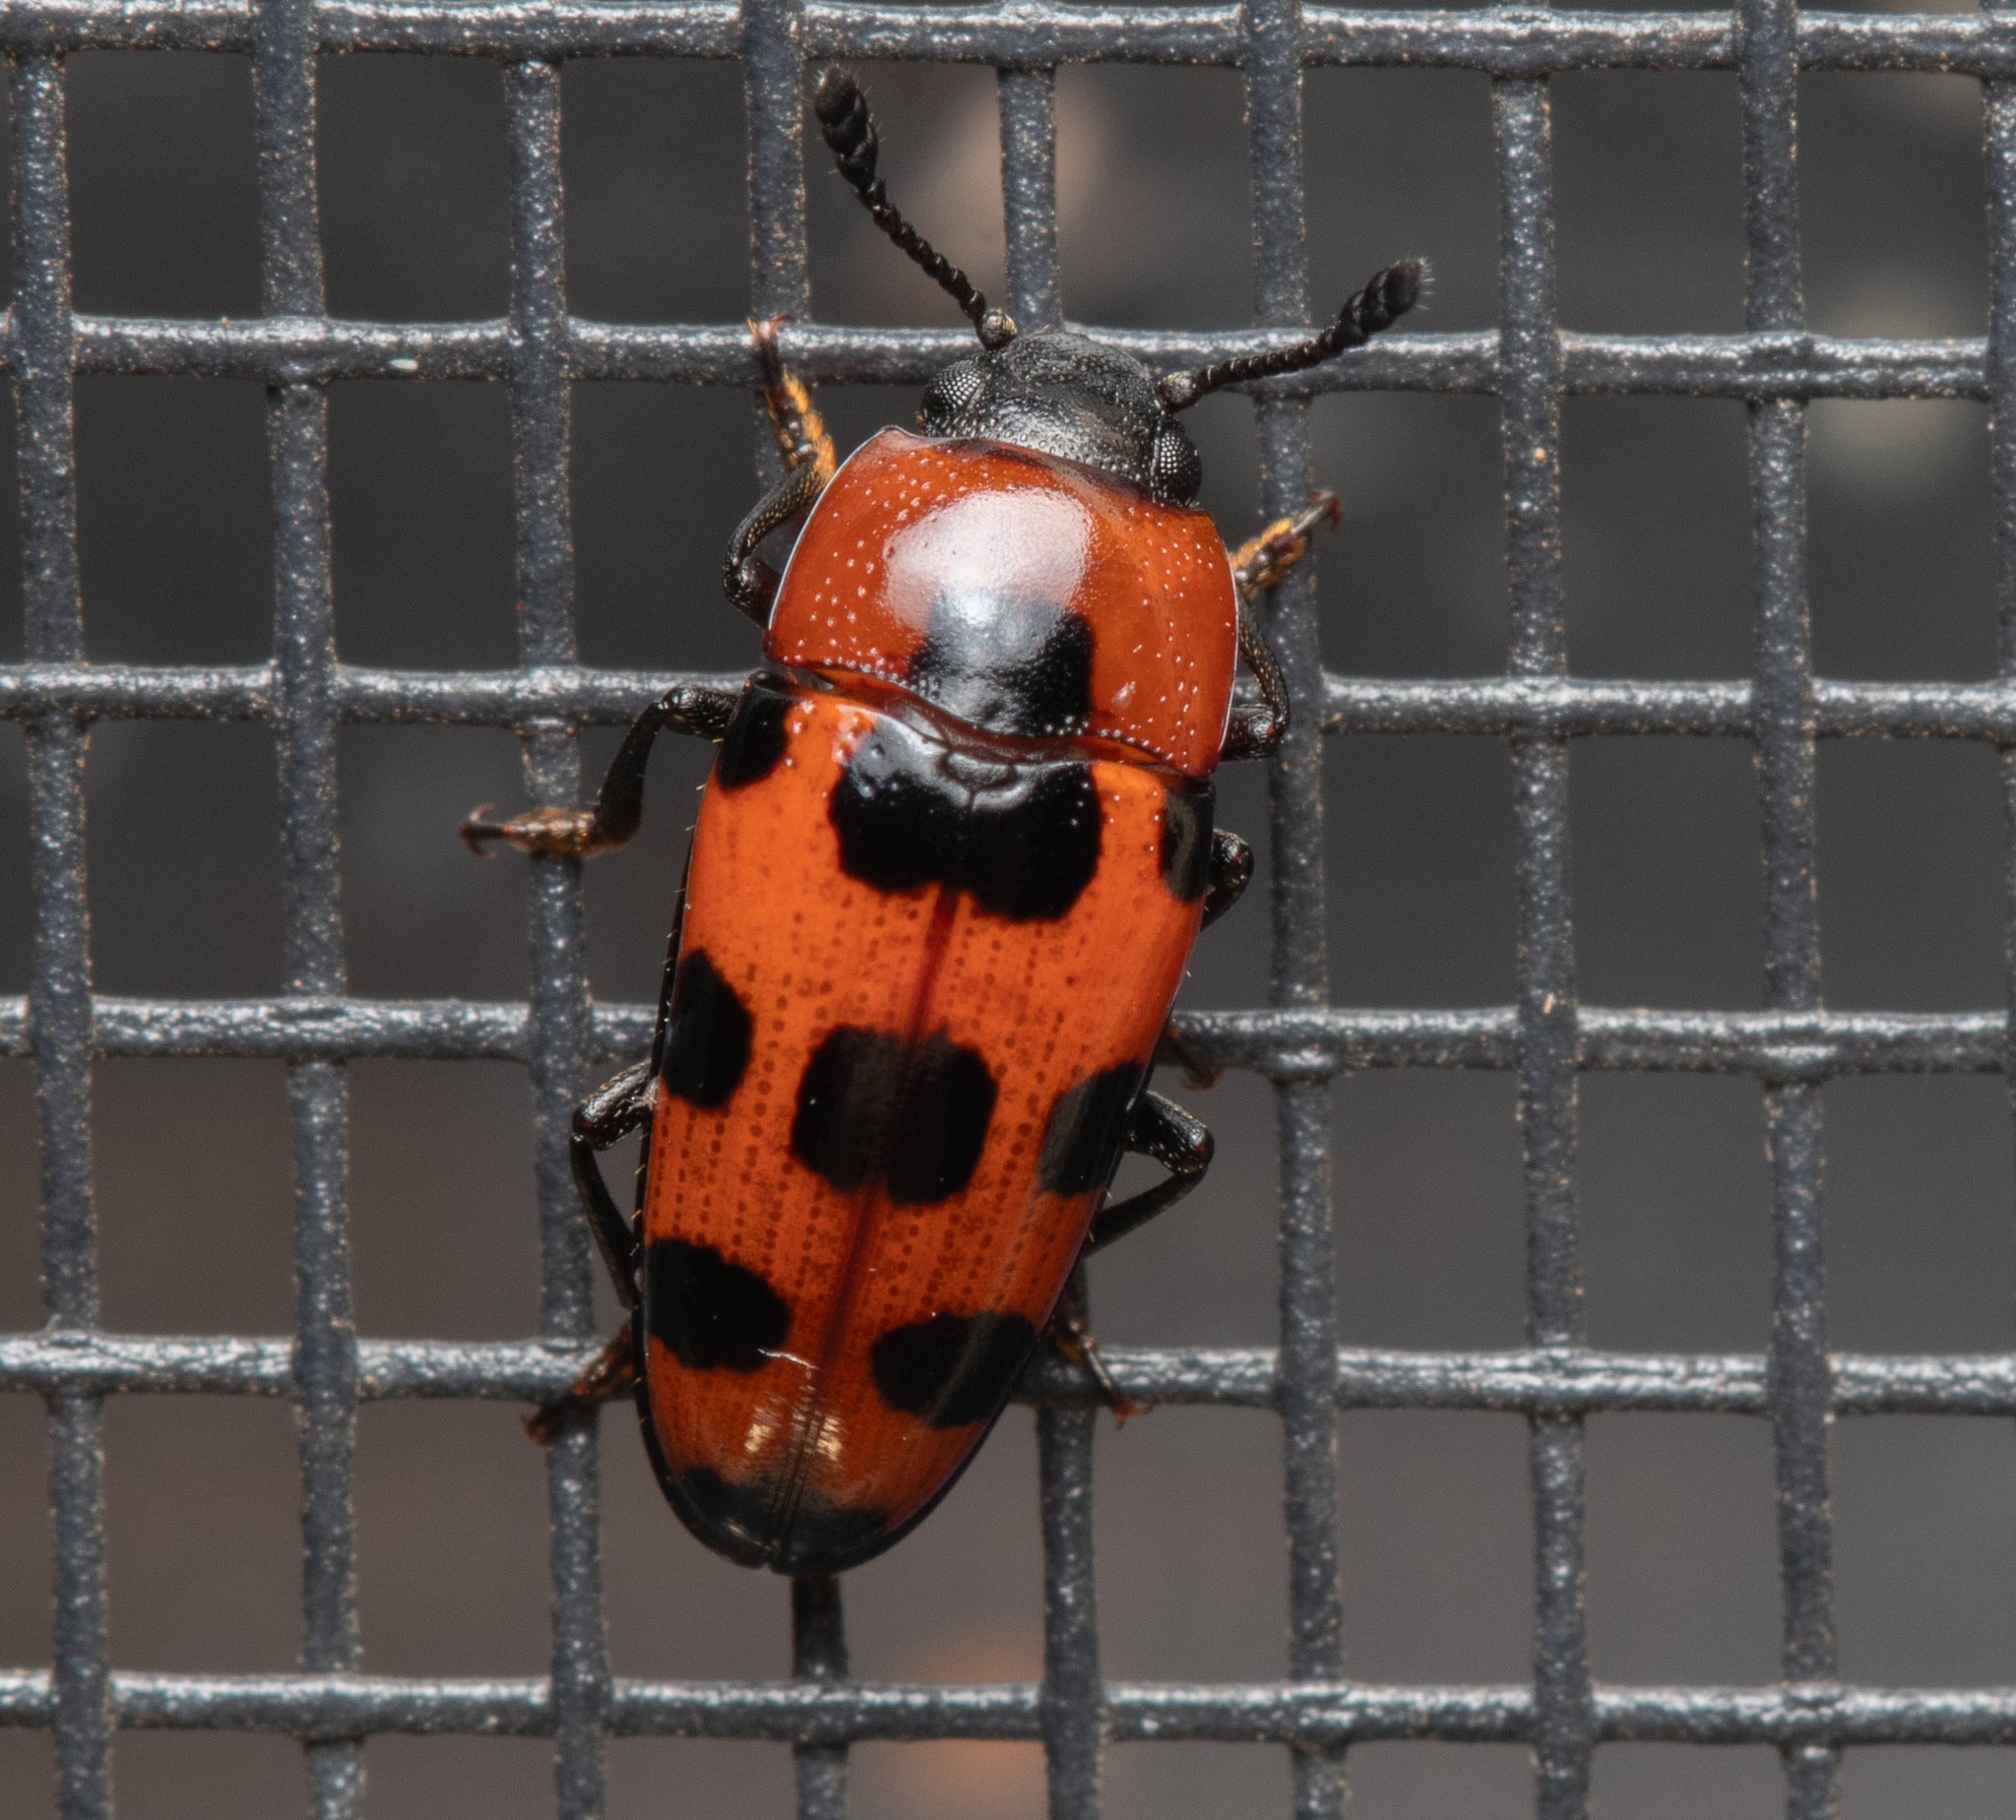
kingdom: Animalia
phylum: Arthropoda
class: Insecta
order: Coleoptera
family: Erotylidae
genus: Episcaphula
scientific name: Episcaphula australis
